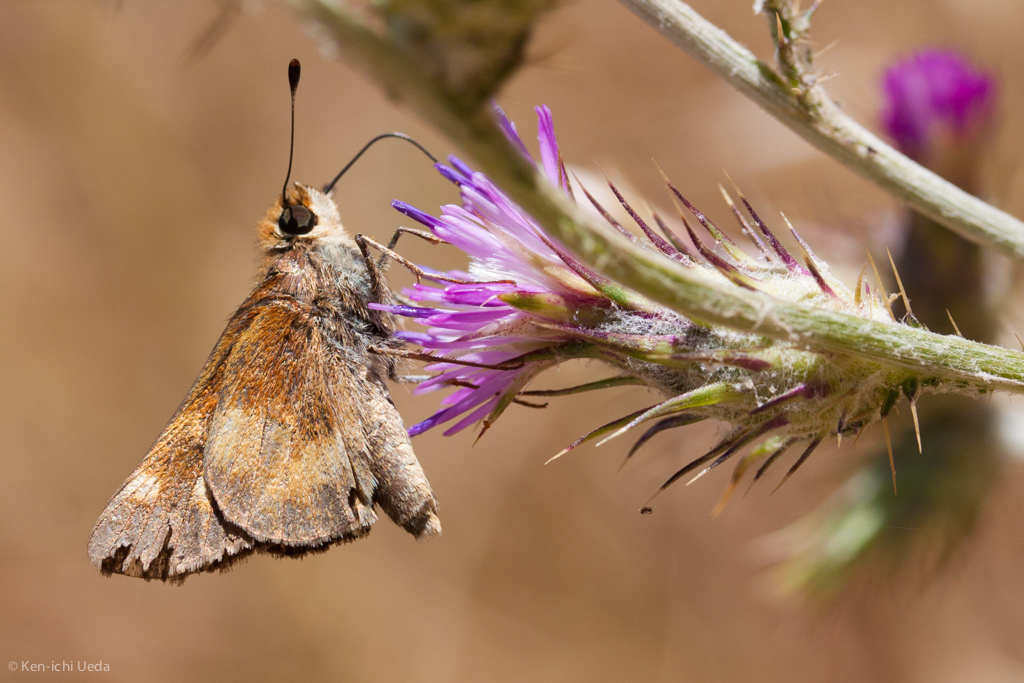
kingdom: Animalia
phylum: Arthropoda
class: Insecta
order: Lepidoptera
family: Hesperiidae
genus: Lon
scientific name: Lon melane
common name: Umber skipper
